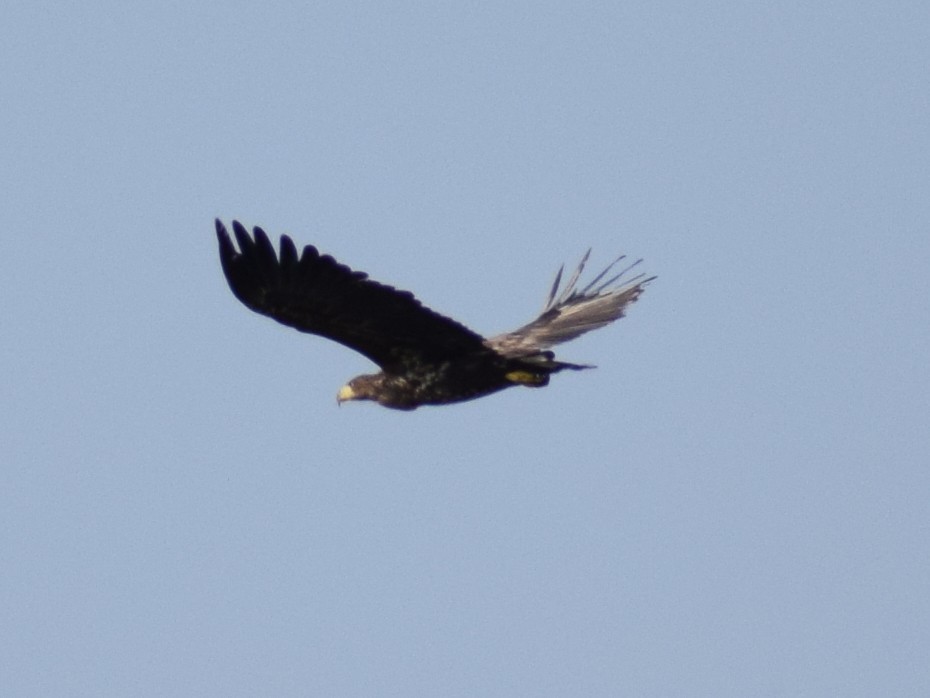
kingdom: Animalia
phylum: Chordata
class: Aves
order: Accipitriformes
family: Accipitridae
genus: Haliaeetus
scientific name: Haliaeetus albicilla
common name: White-tailed eagle
